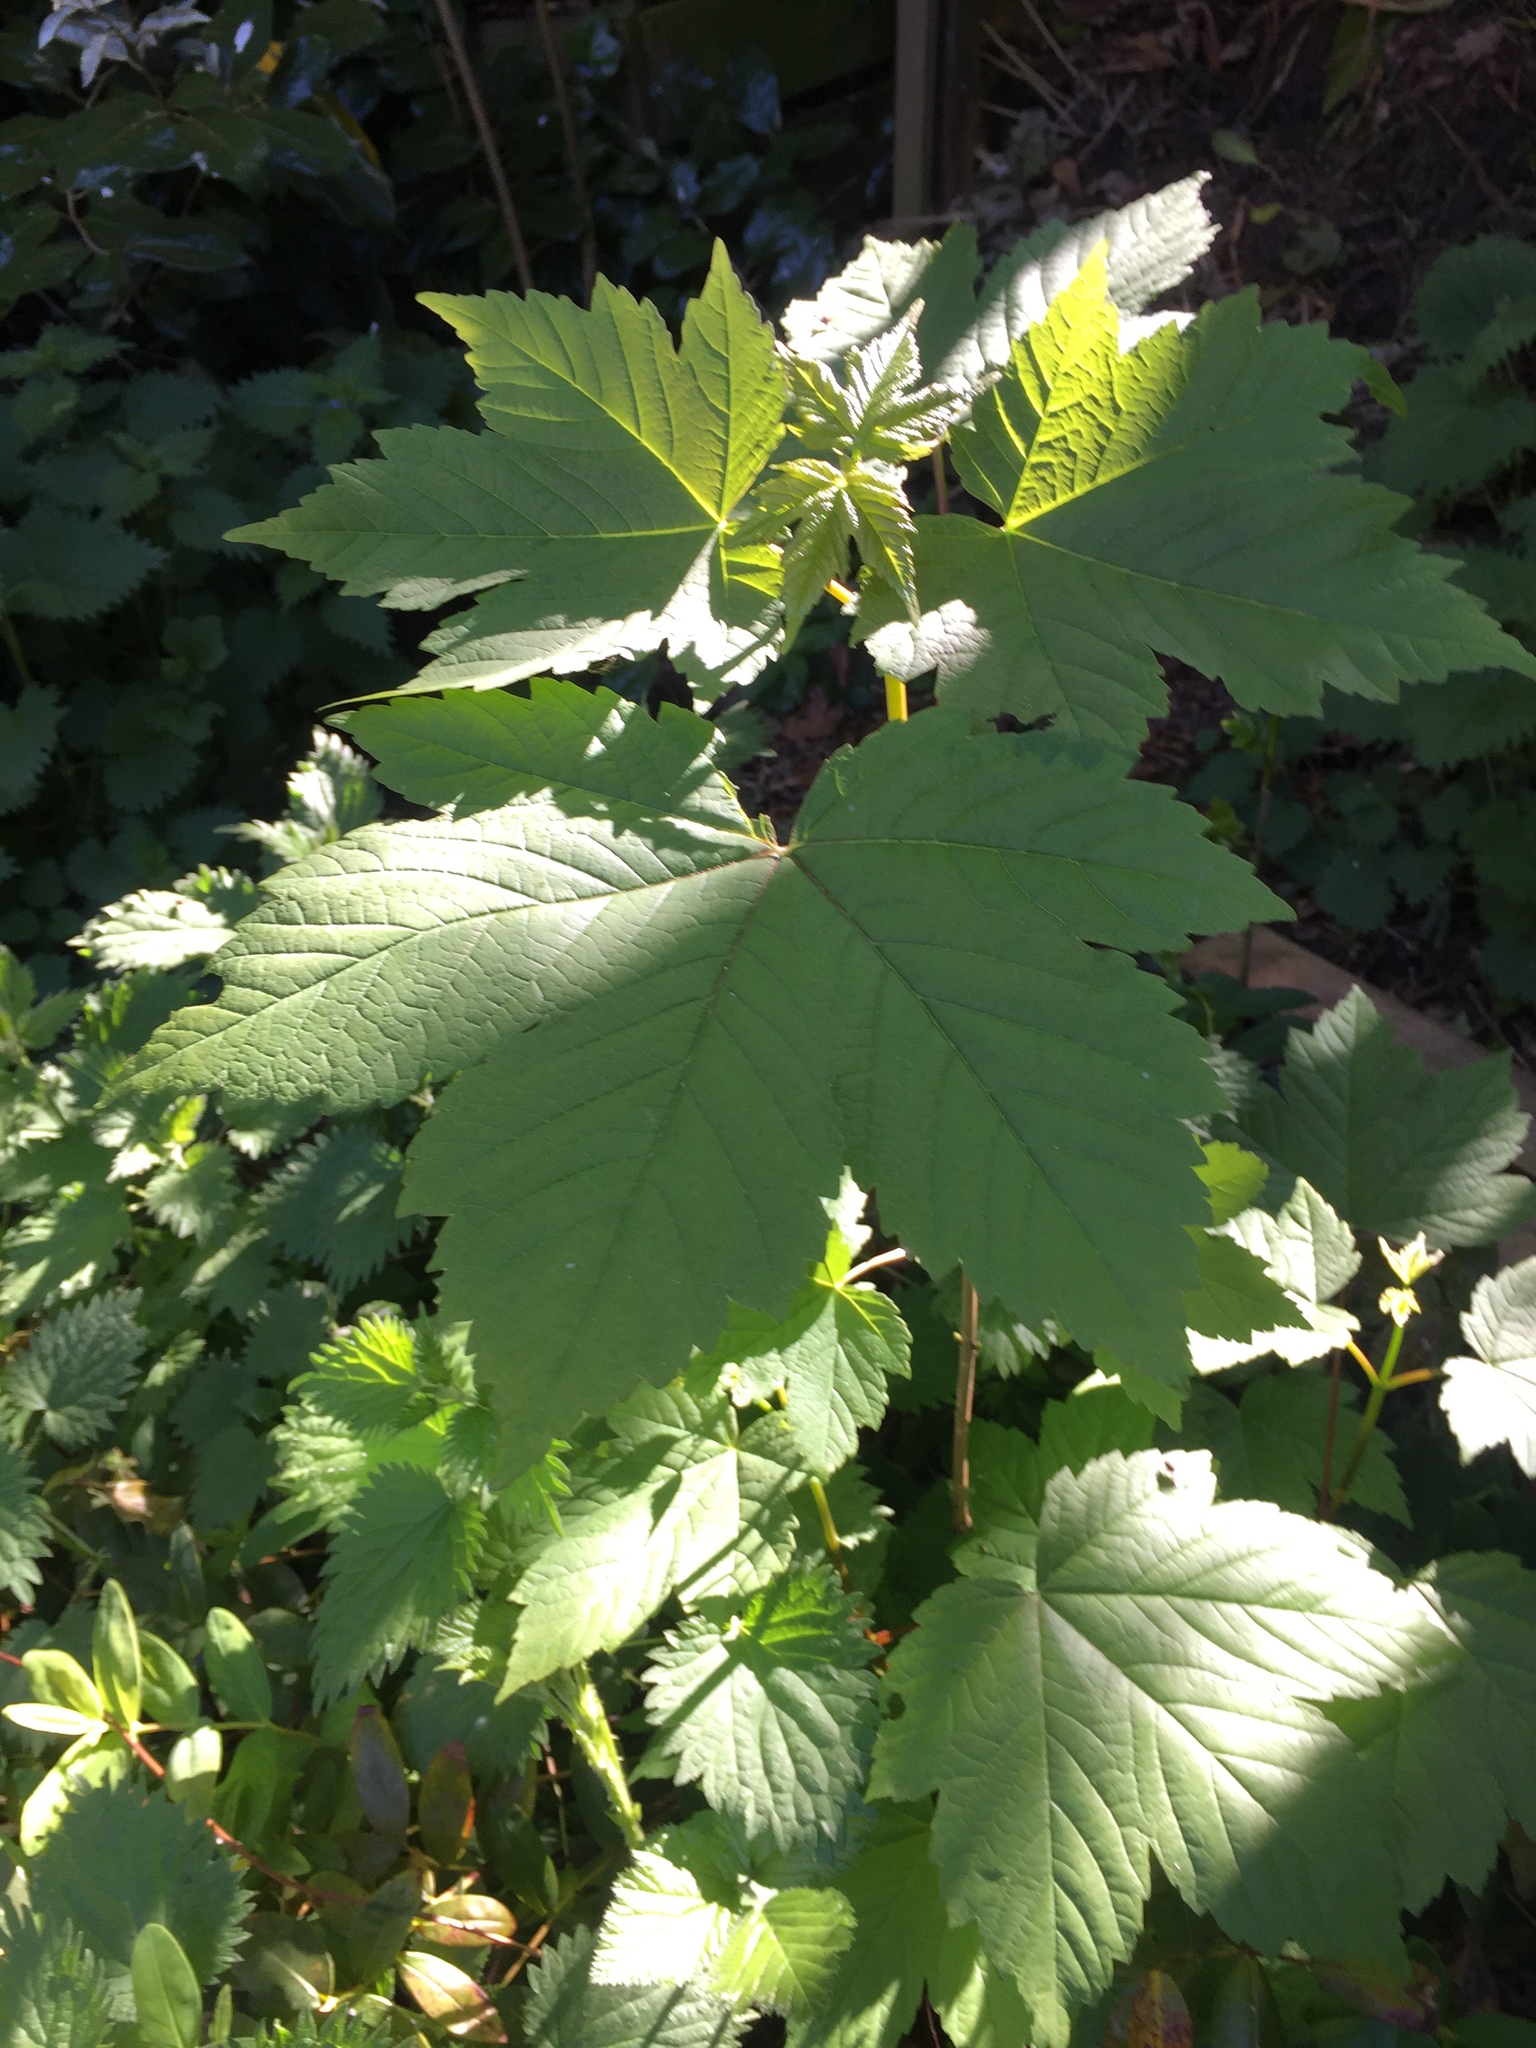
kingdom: Plantae
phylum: Tracheophyta
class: Magnoliopsida
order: Sapindales
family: Sapindaceae
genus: Acer
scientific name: Acer pseudoplatanus
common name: Sycamore
